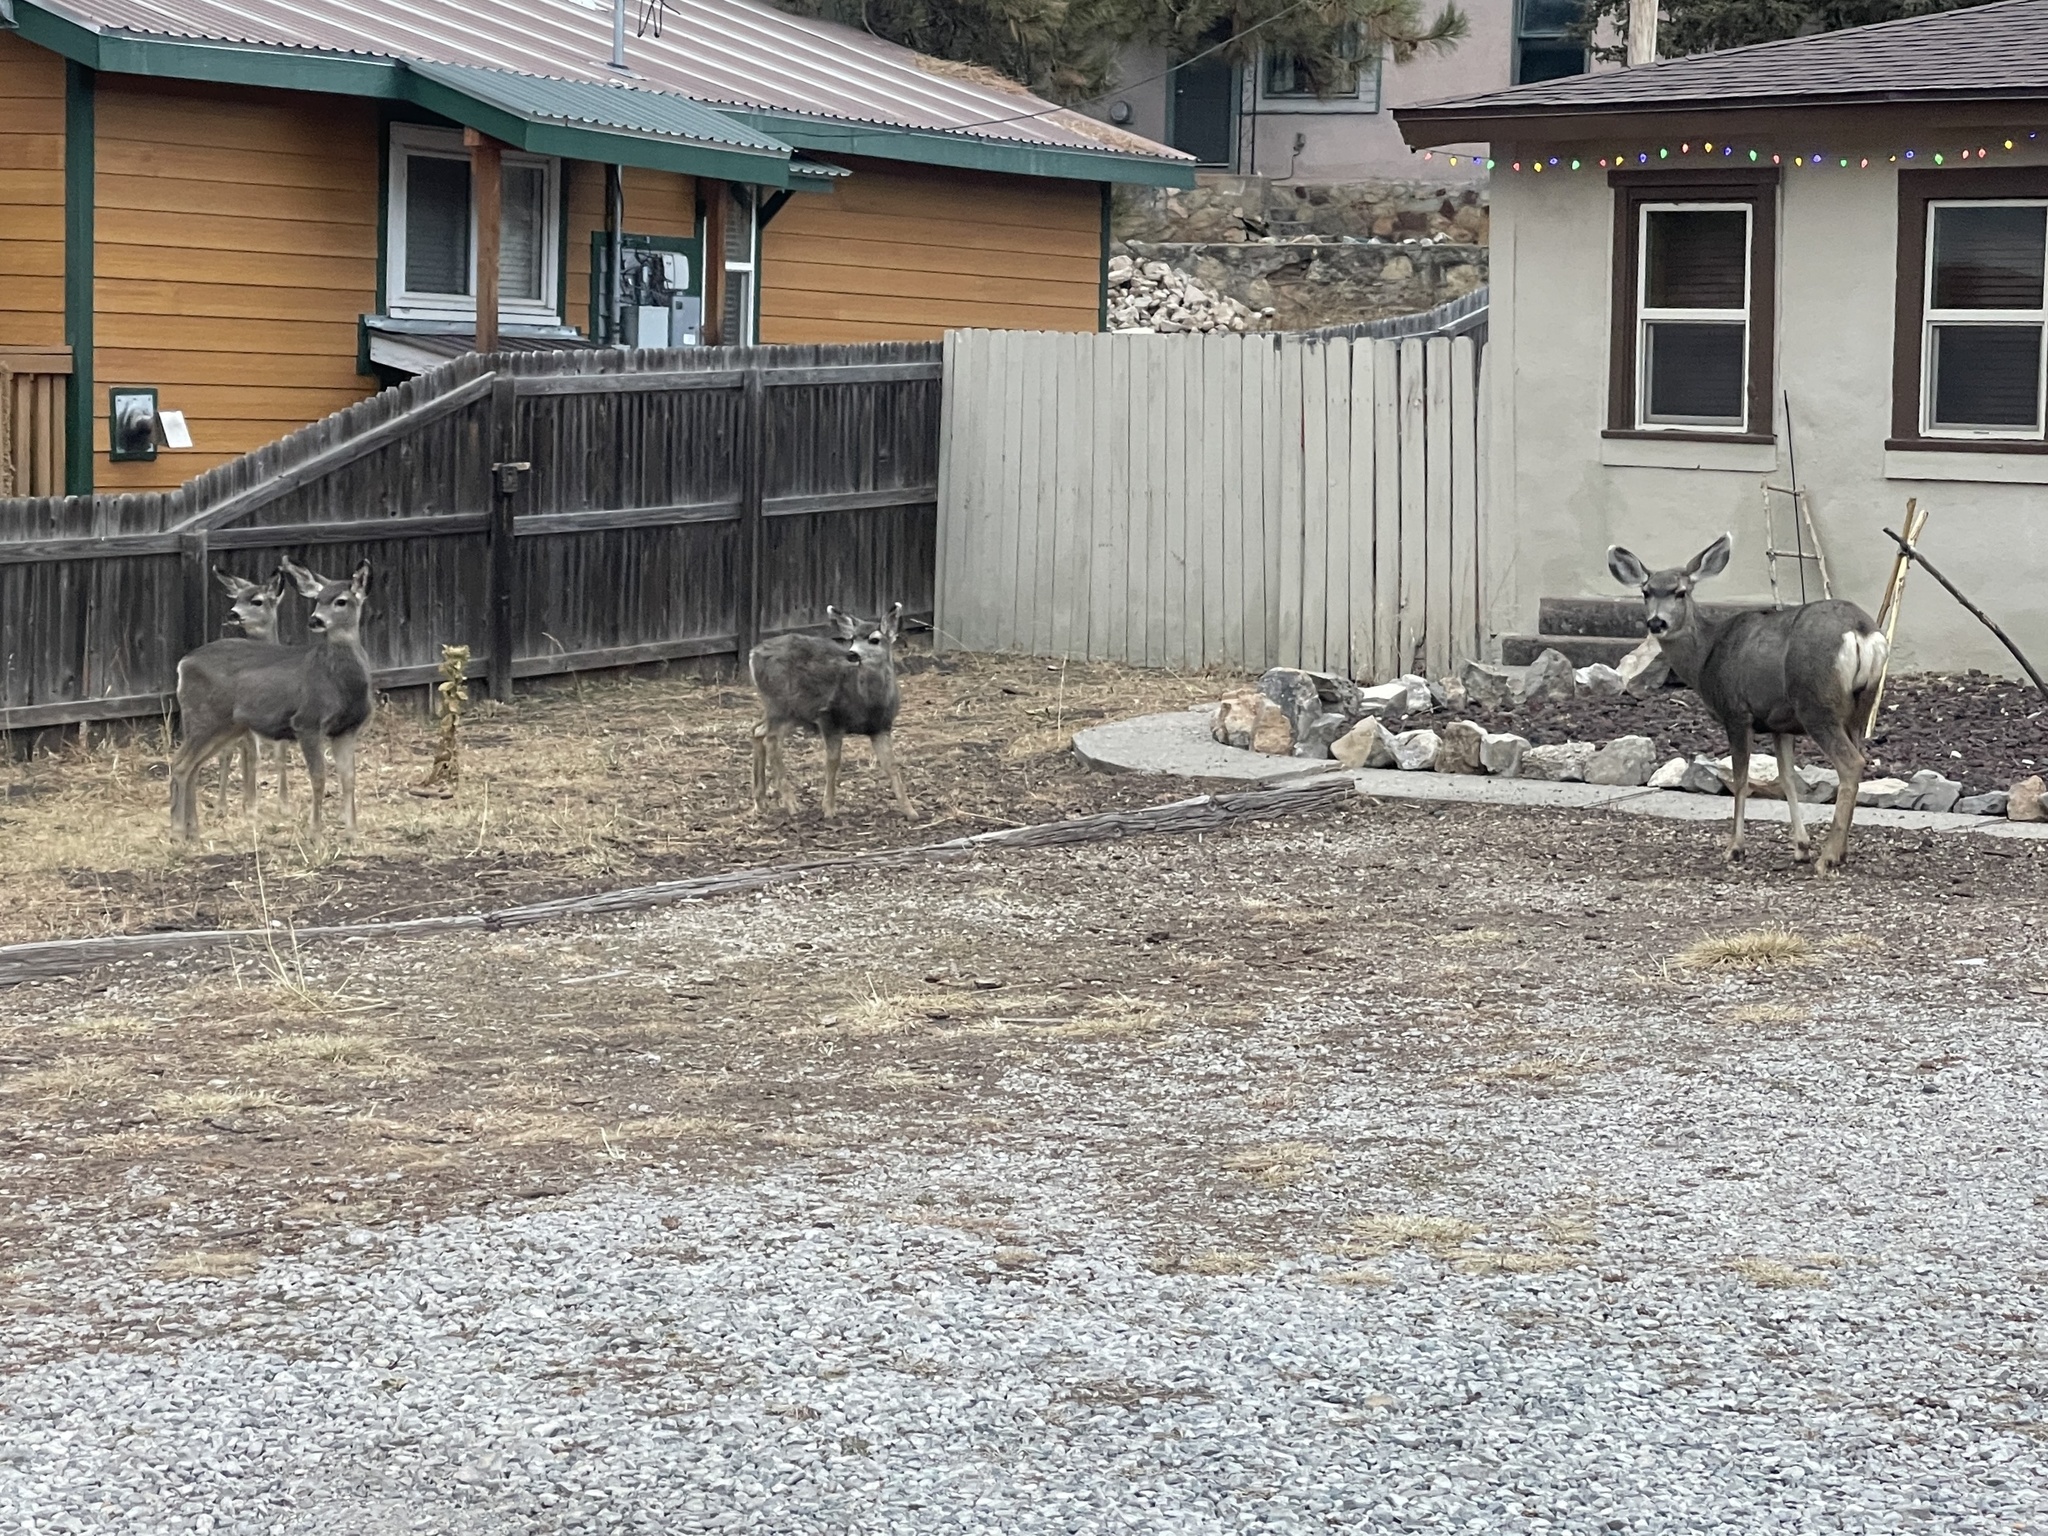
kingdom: Animalia
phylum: Chordata
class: Mammalia
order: Artiodactyla
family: Cervidae
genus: Odocoileus
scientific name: Odocoileus hemionus
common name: Mule deer
